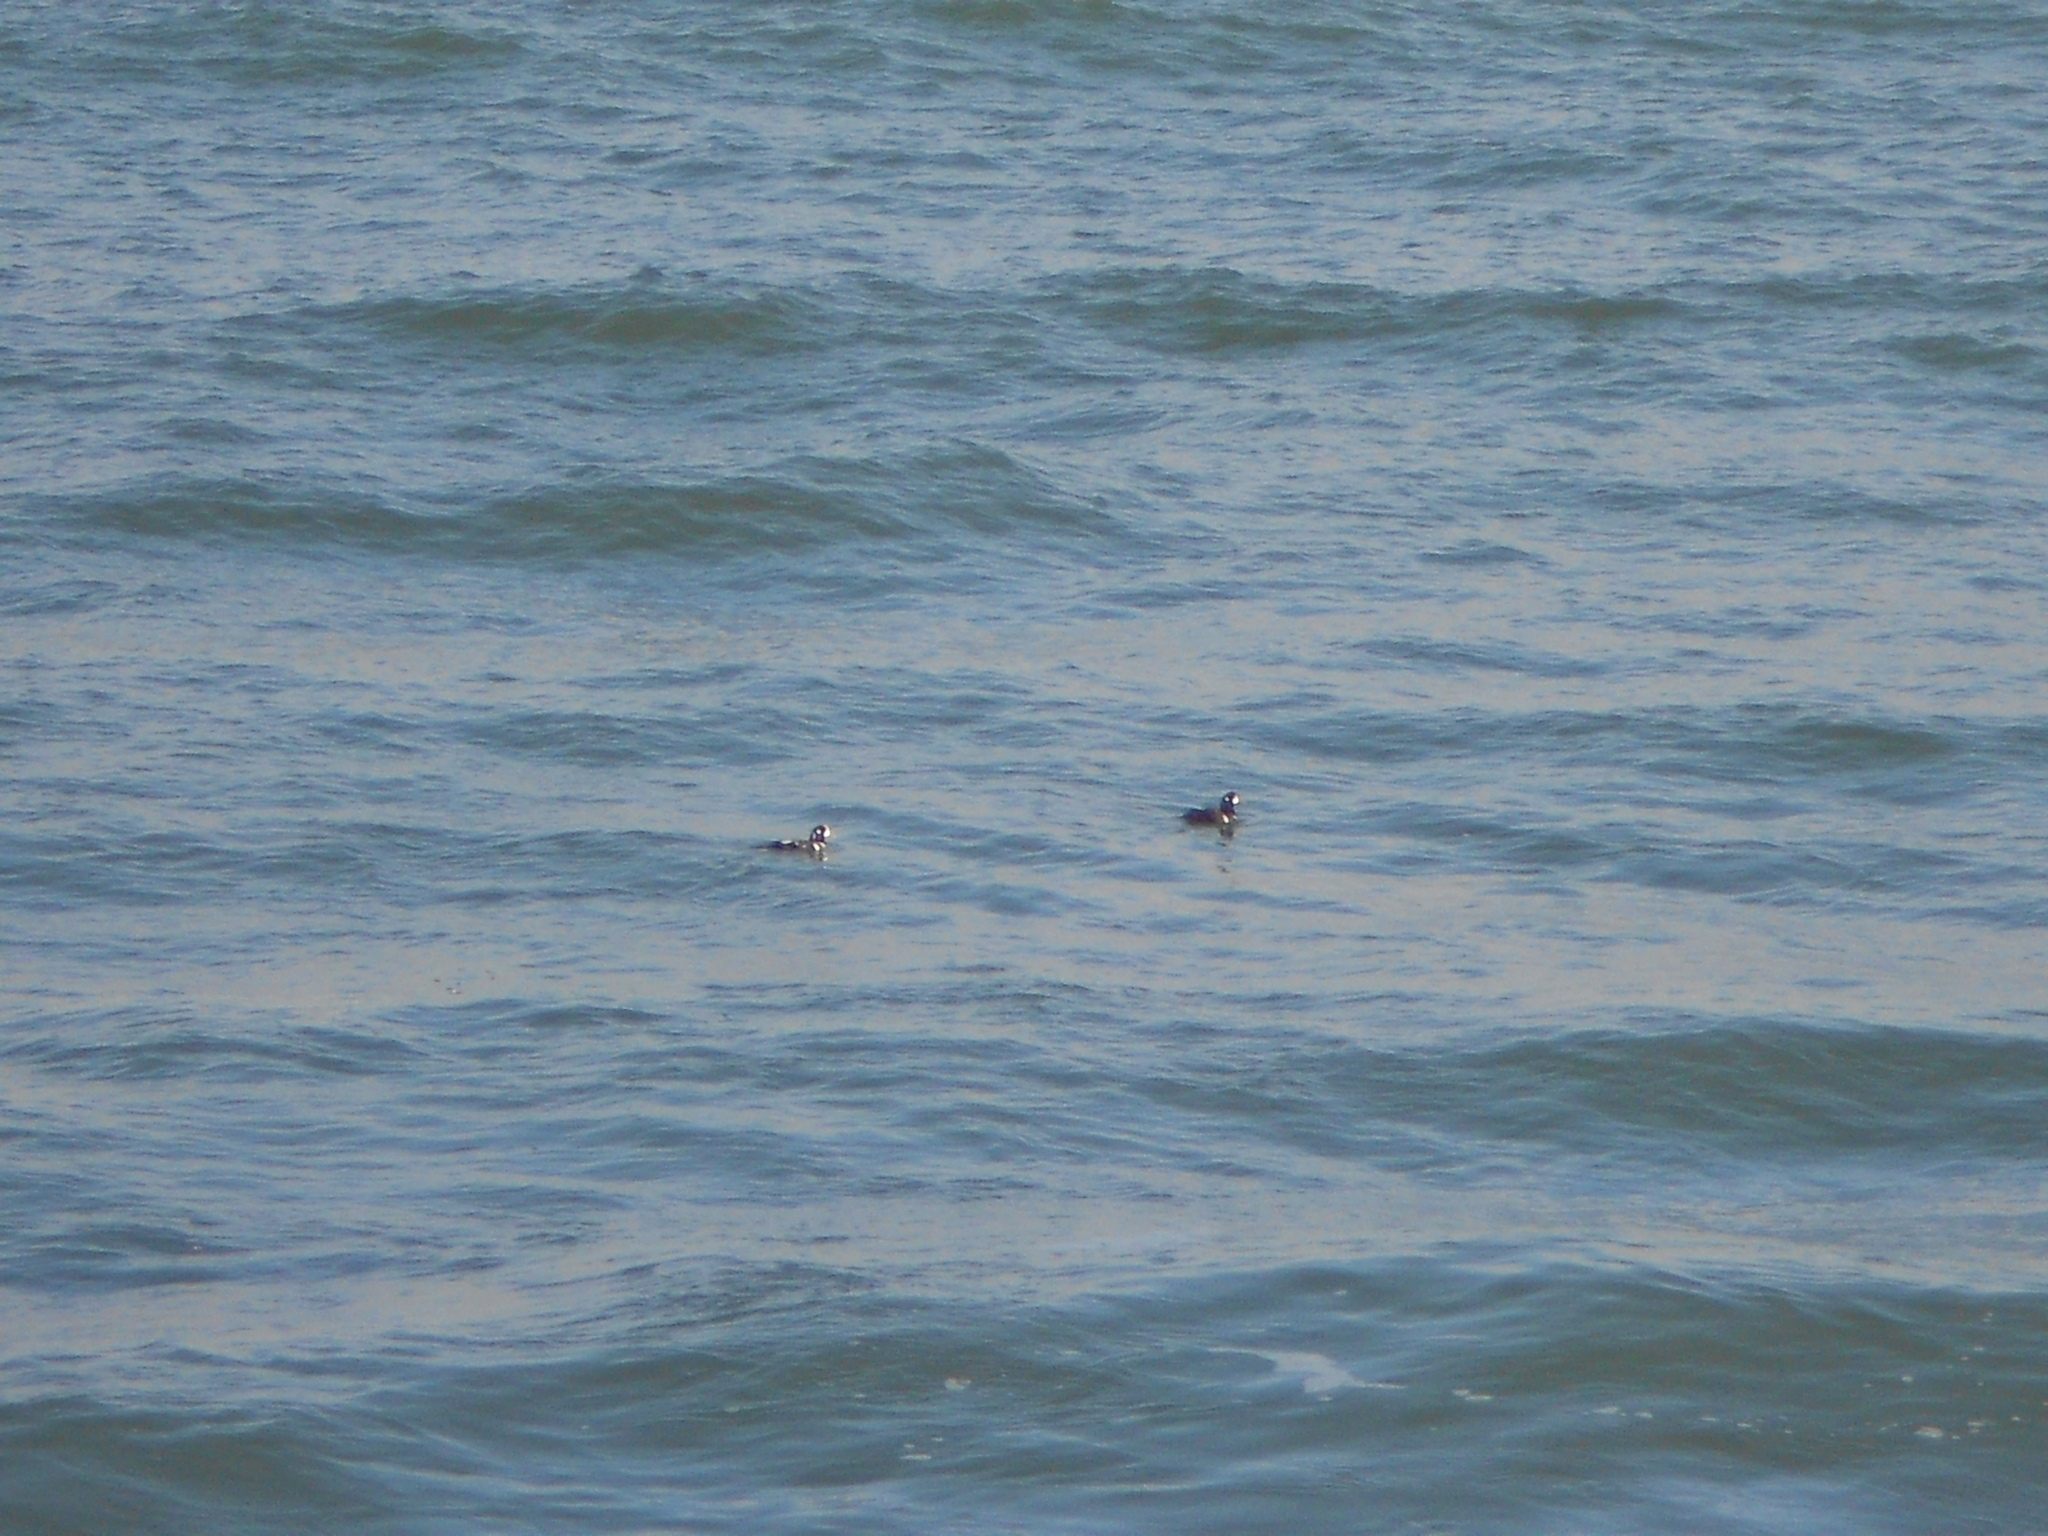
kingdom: Animalia
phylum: Chordata
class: Aves
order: Anseriformes
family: Anatidae
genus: Histrionicus
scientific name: Histrionicus histrionicus
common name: Harlequin duck
